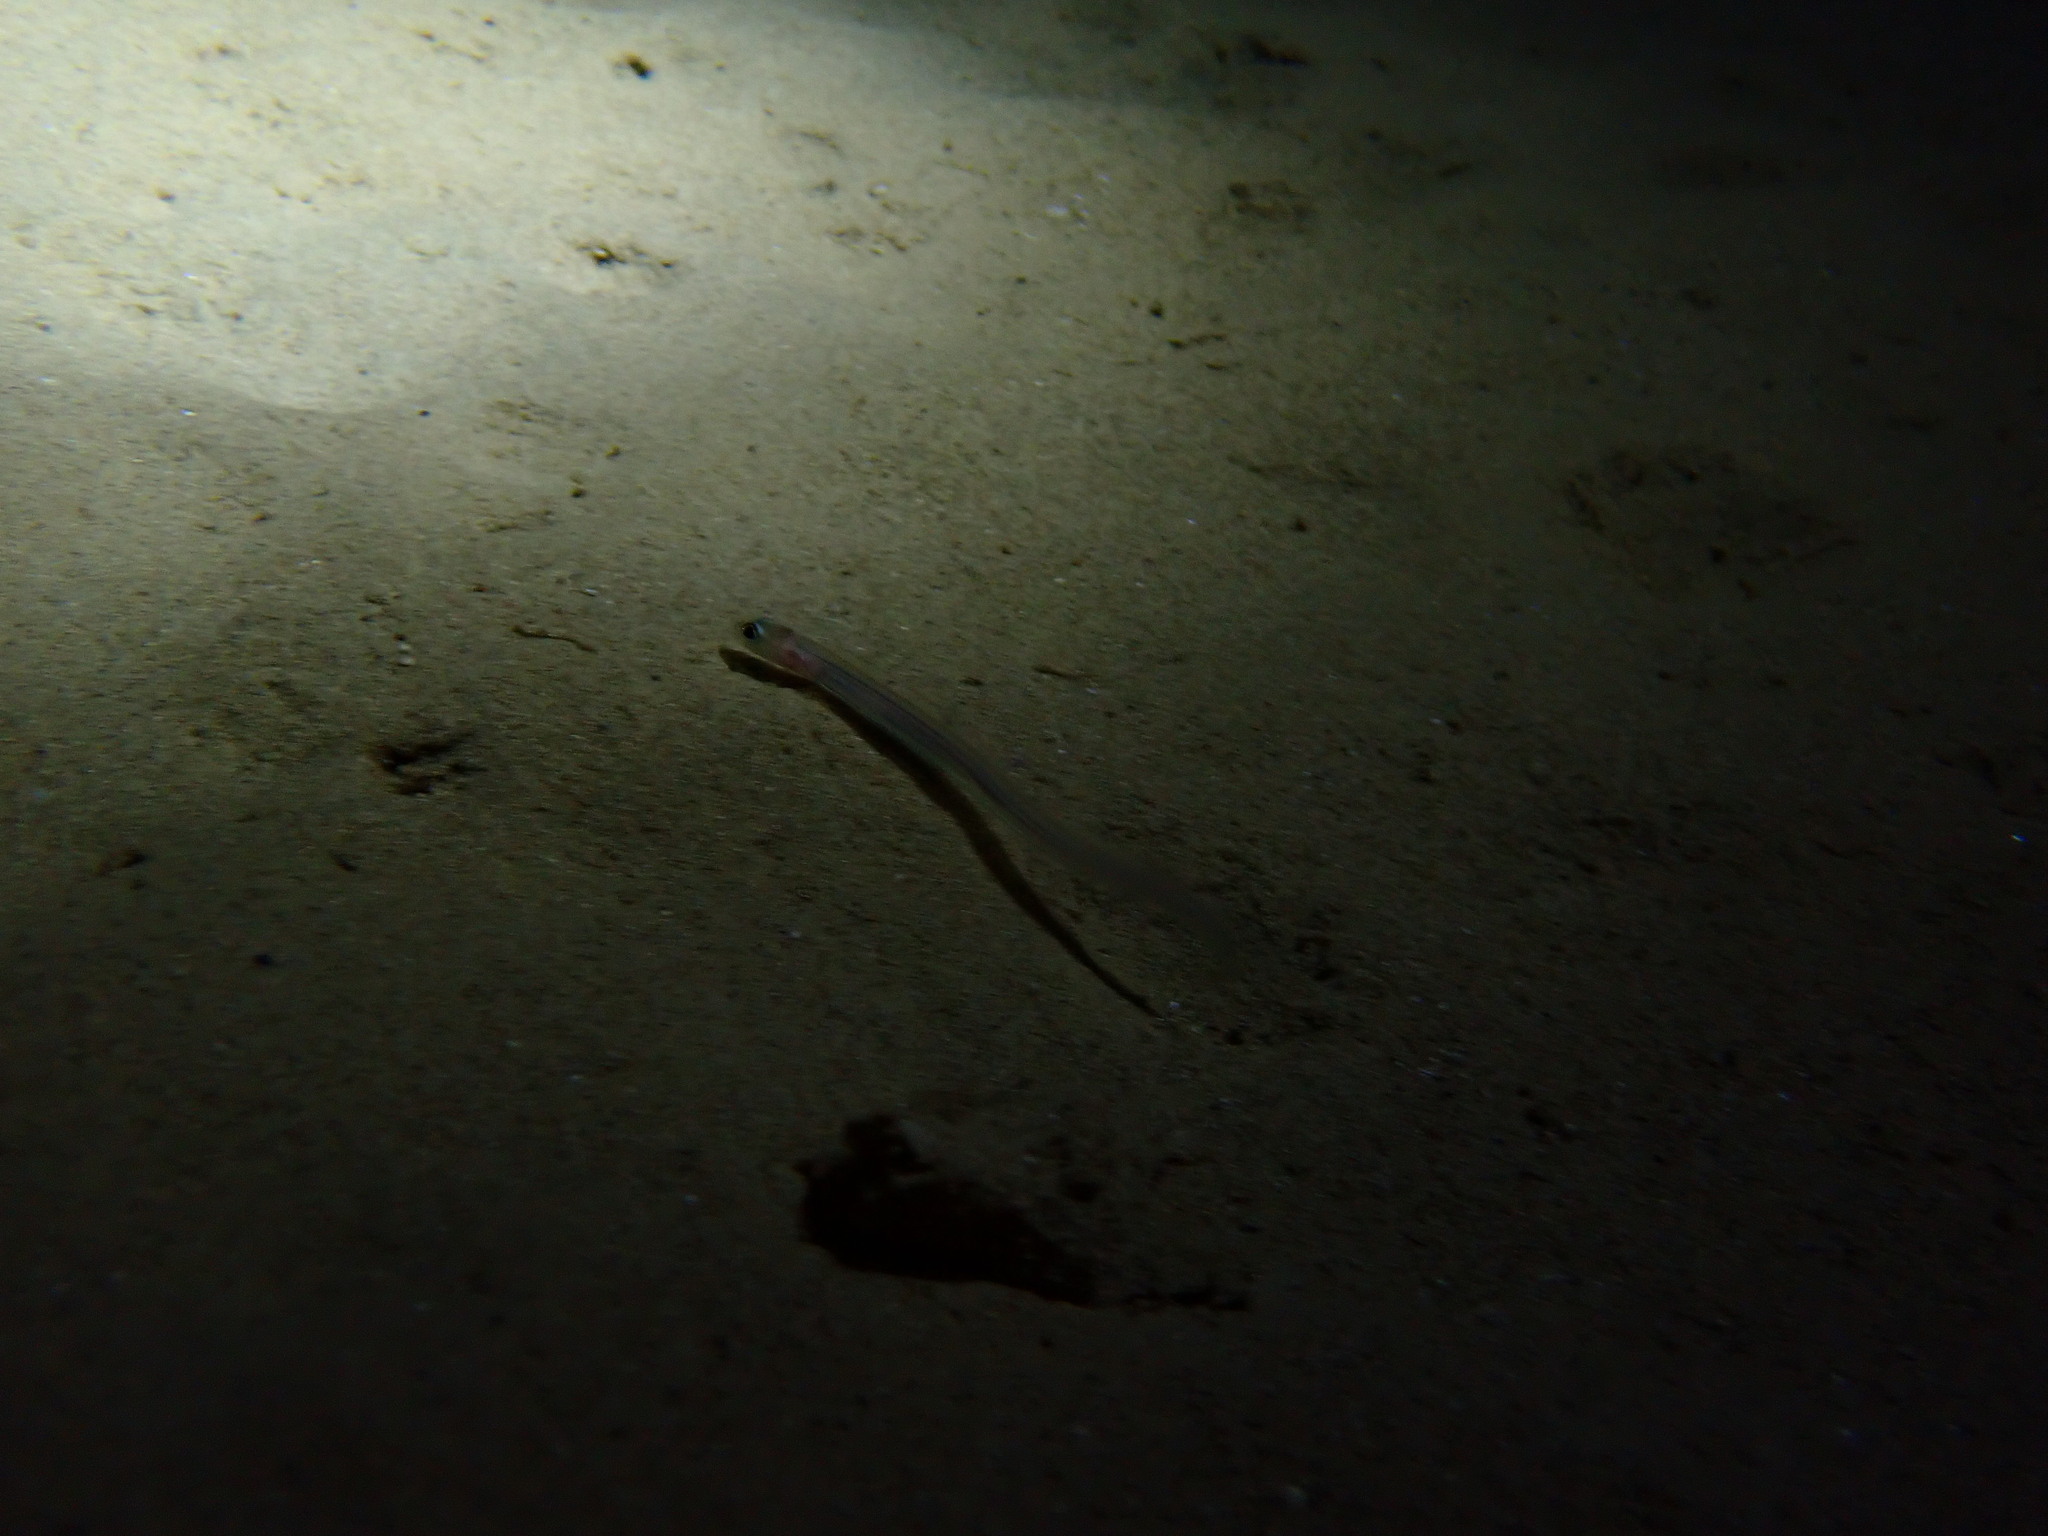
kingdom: Animalia
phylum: Chordata
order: Anguilliformes
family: Congridae
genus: Ariosoma
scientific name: Ariosoma balearicum
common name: Bandtooth conger
